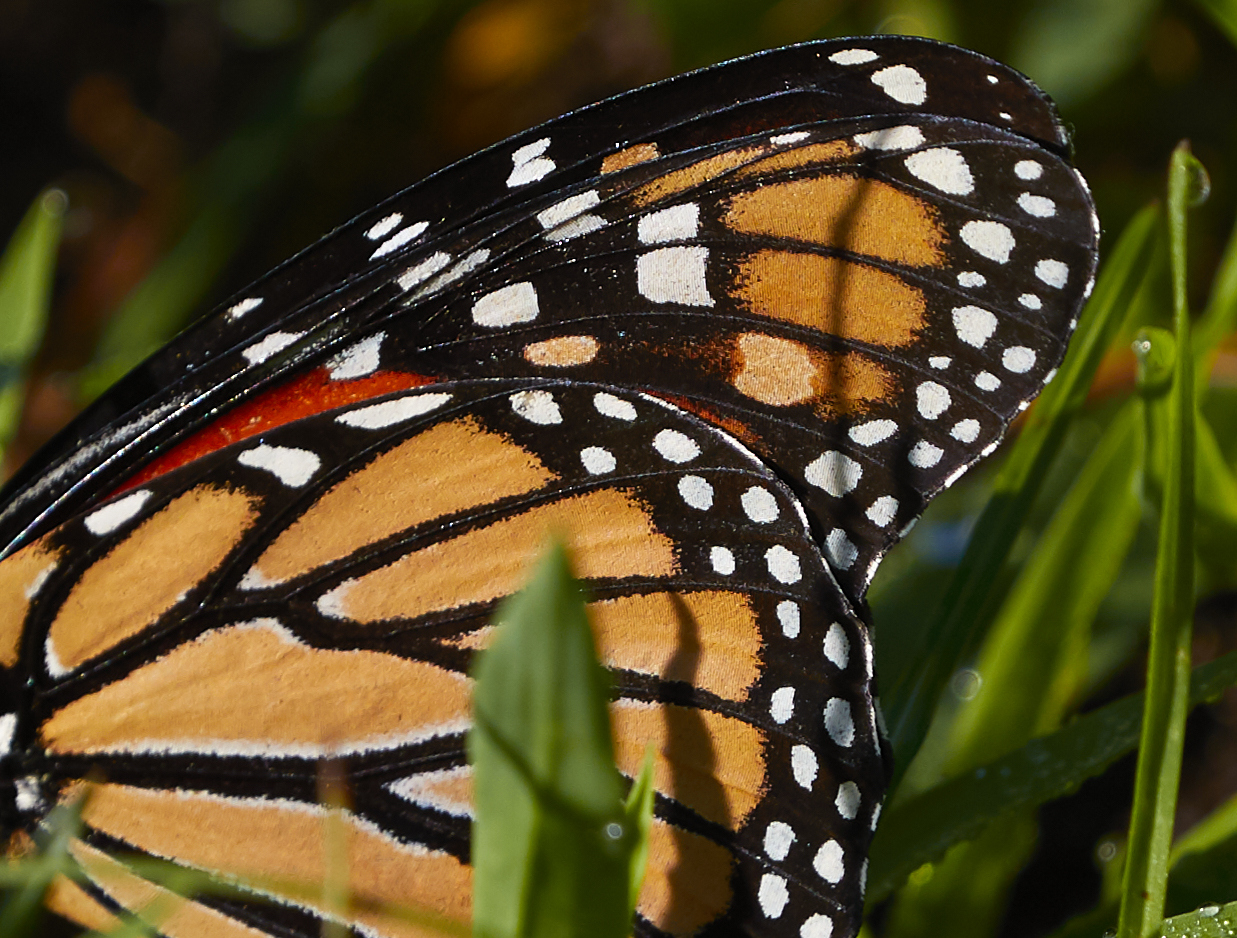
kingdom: Animalia
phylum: Arthropoda
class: Insecta
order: Lepidoptera
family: Nymphalidae
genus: Danaus
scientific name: Danaus plexippus
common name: Monarch
